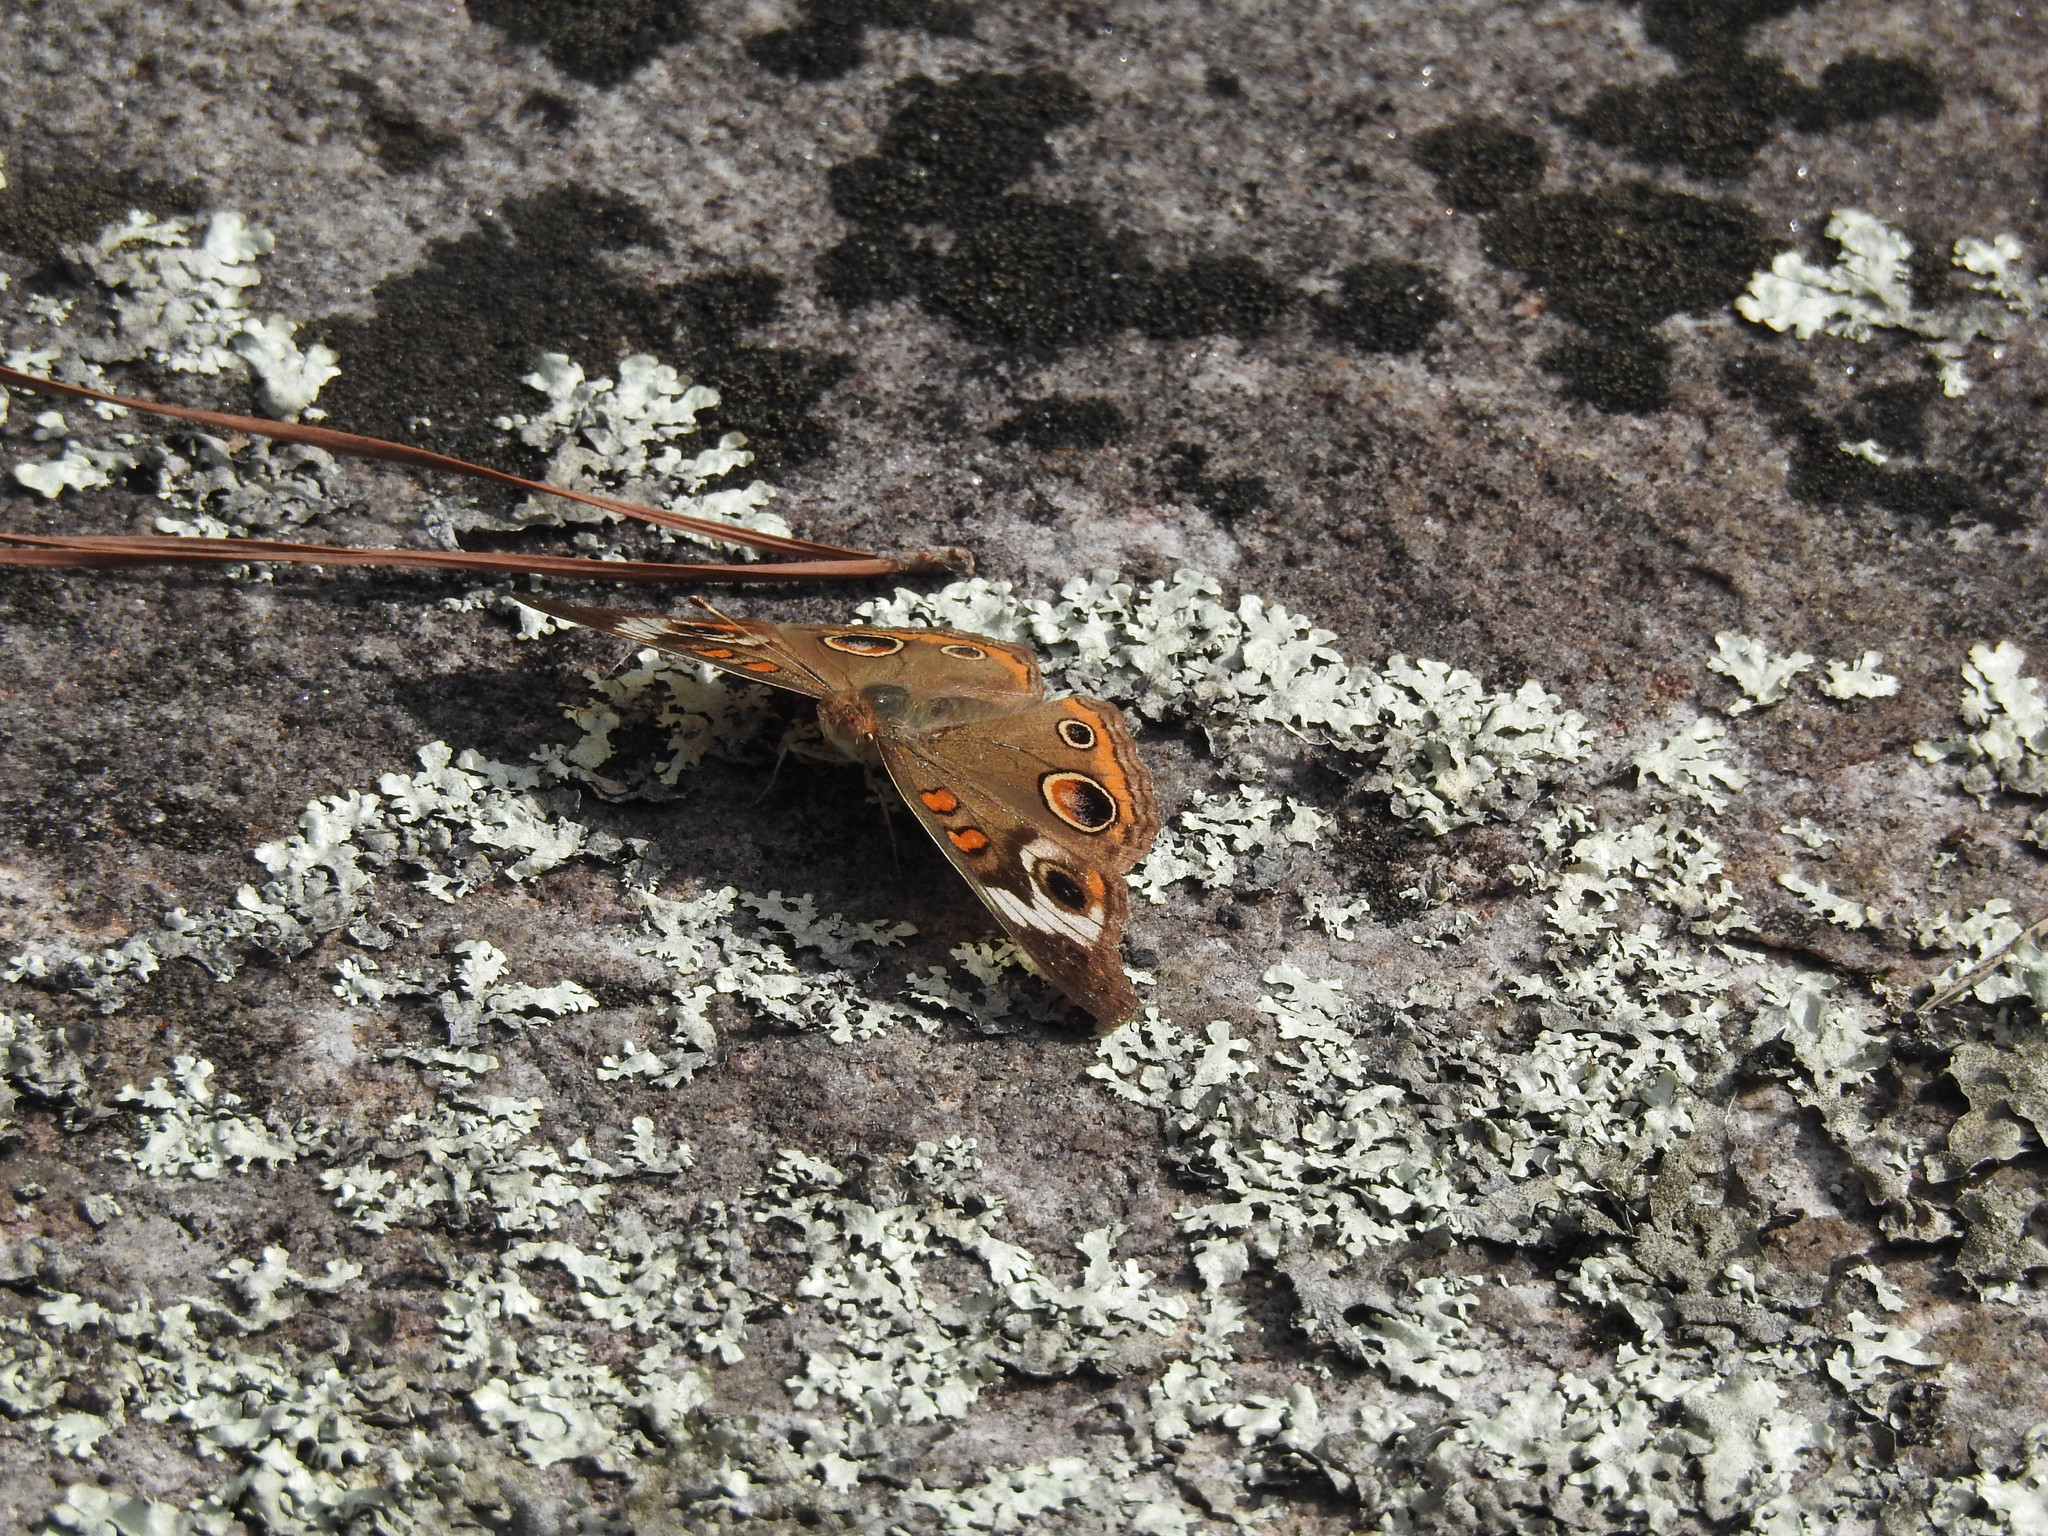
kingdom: Animalia
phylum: Arthropoda
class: Insecta
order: Lepidoptera
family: Nymphalidae
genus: Junonia
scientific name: Junonia coenia
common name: Common buckeye
